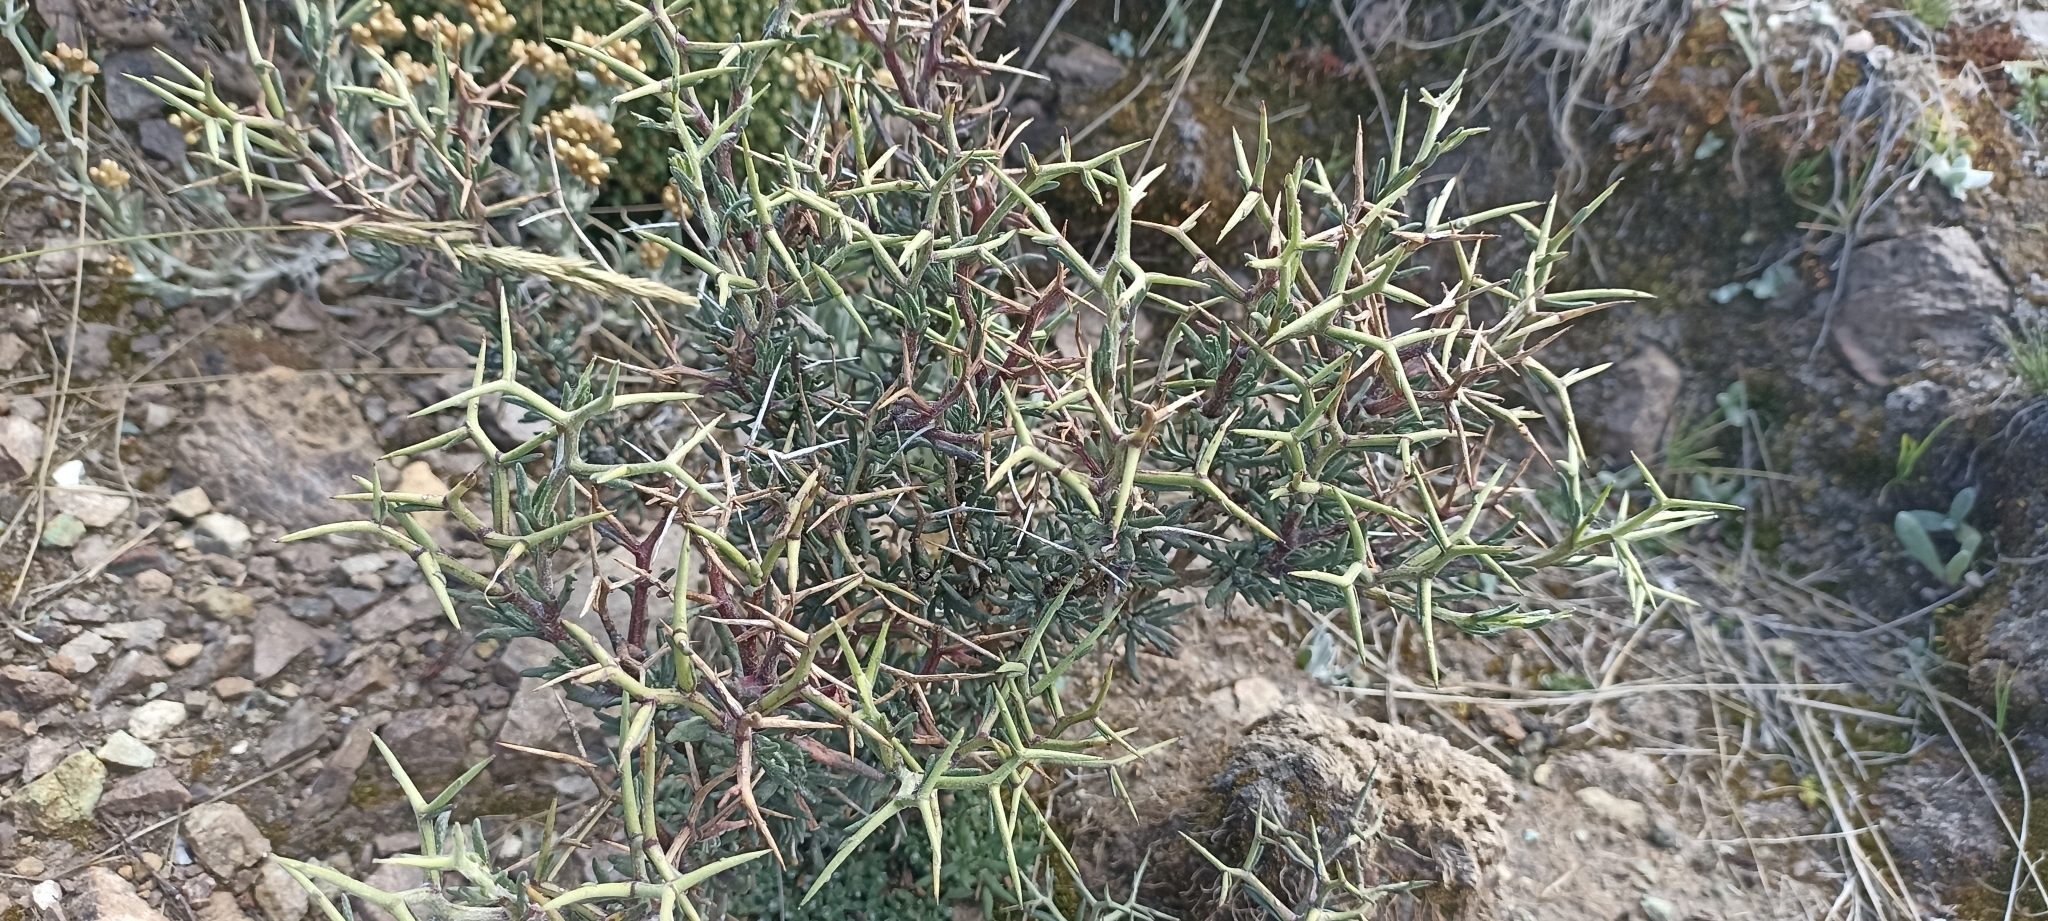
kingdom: Plantae
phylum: Tracheophyta
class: Magnoliopsida
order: Asterales
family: Asteraceae
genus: Senecio
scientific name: Senecio spinosus
